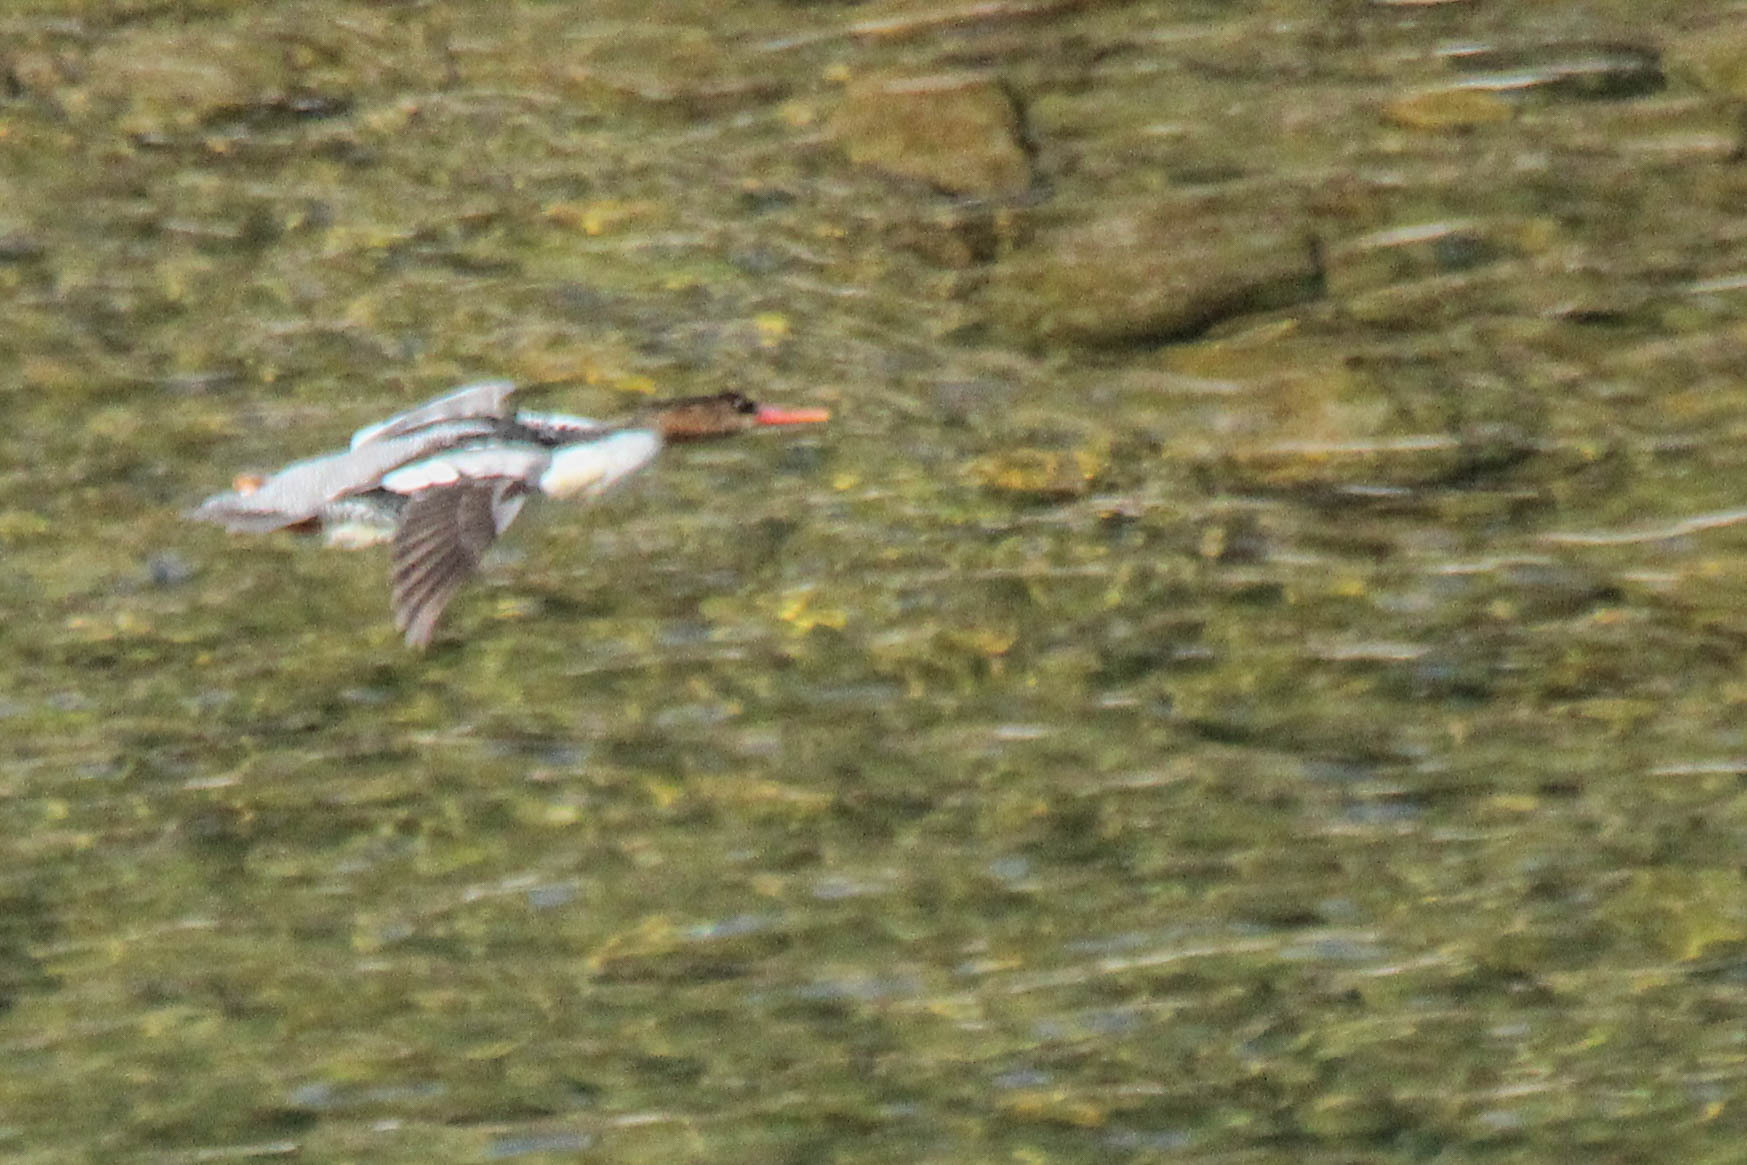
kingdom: Animalia
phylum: Chordata
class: Aves
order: Anseriformes
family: Anatidae
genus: Mergus
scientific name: Mergus squamatus
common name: Scaly-sided merganser
